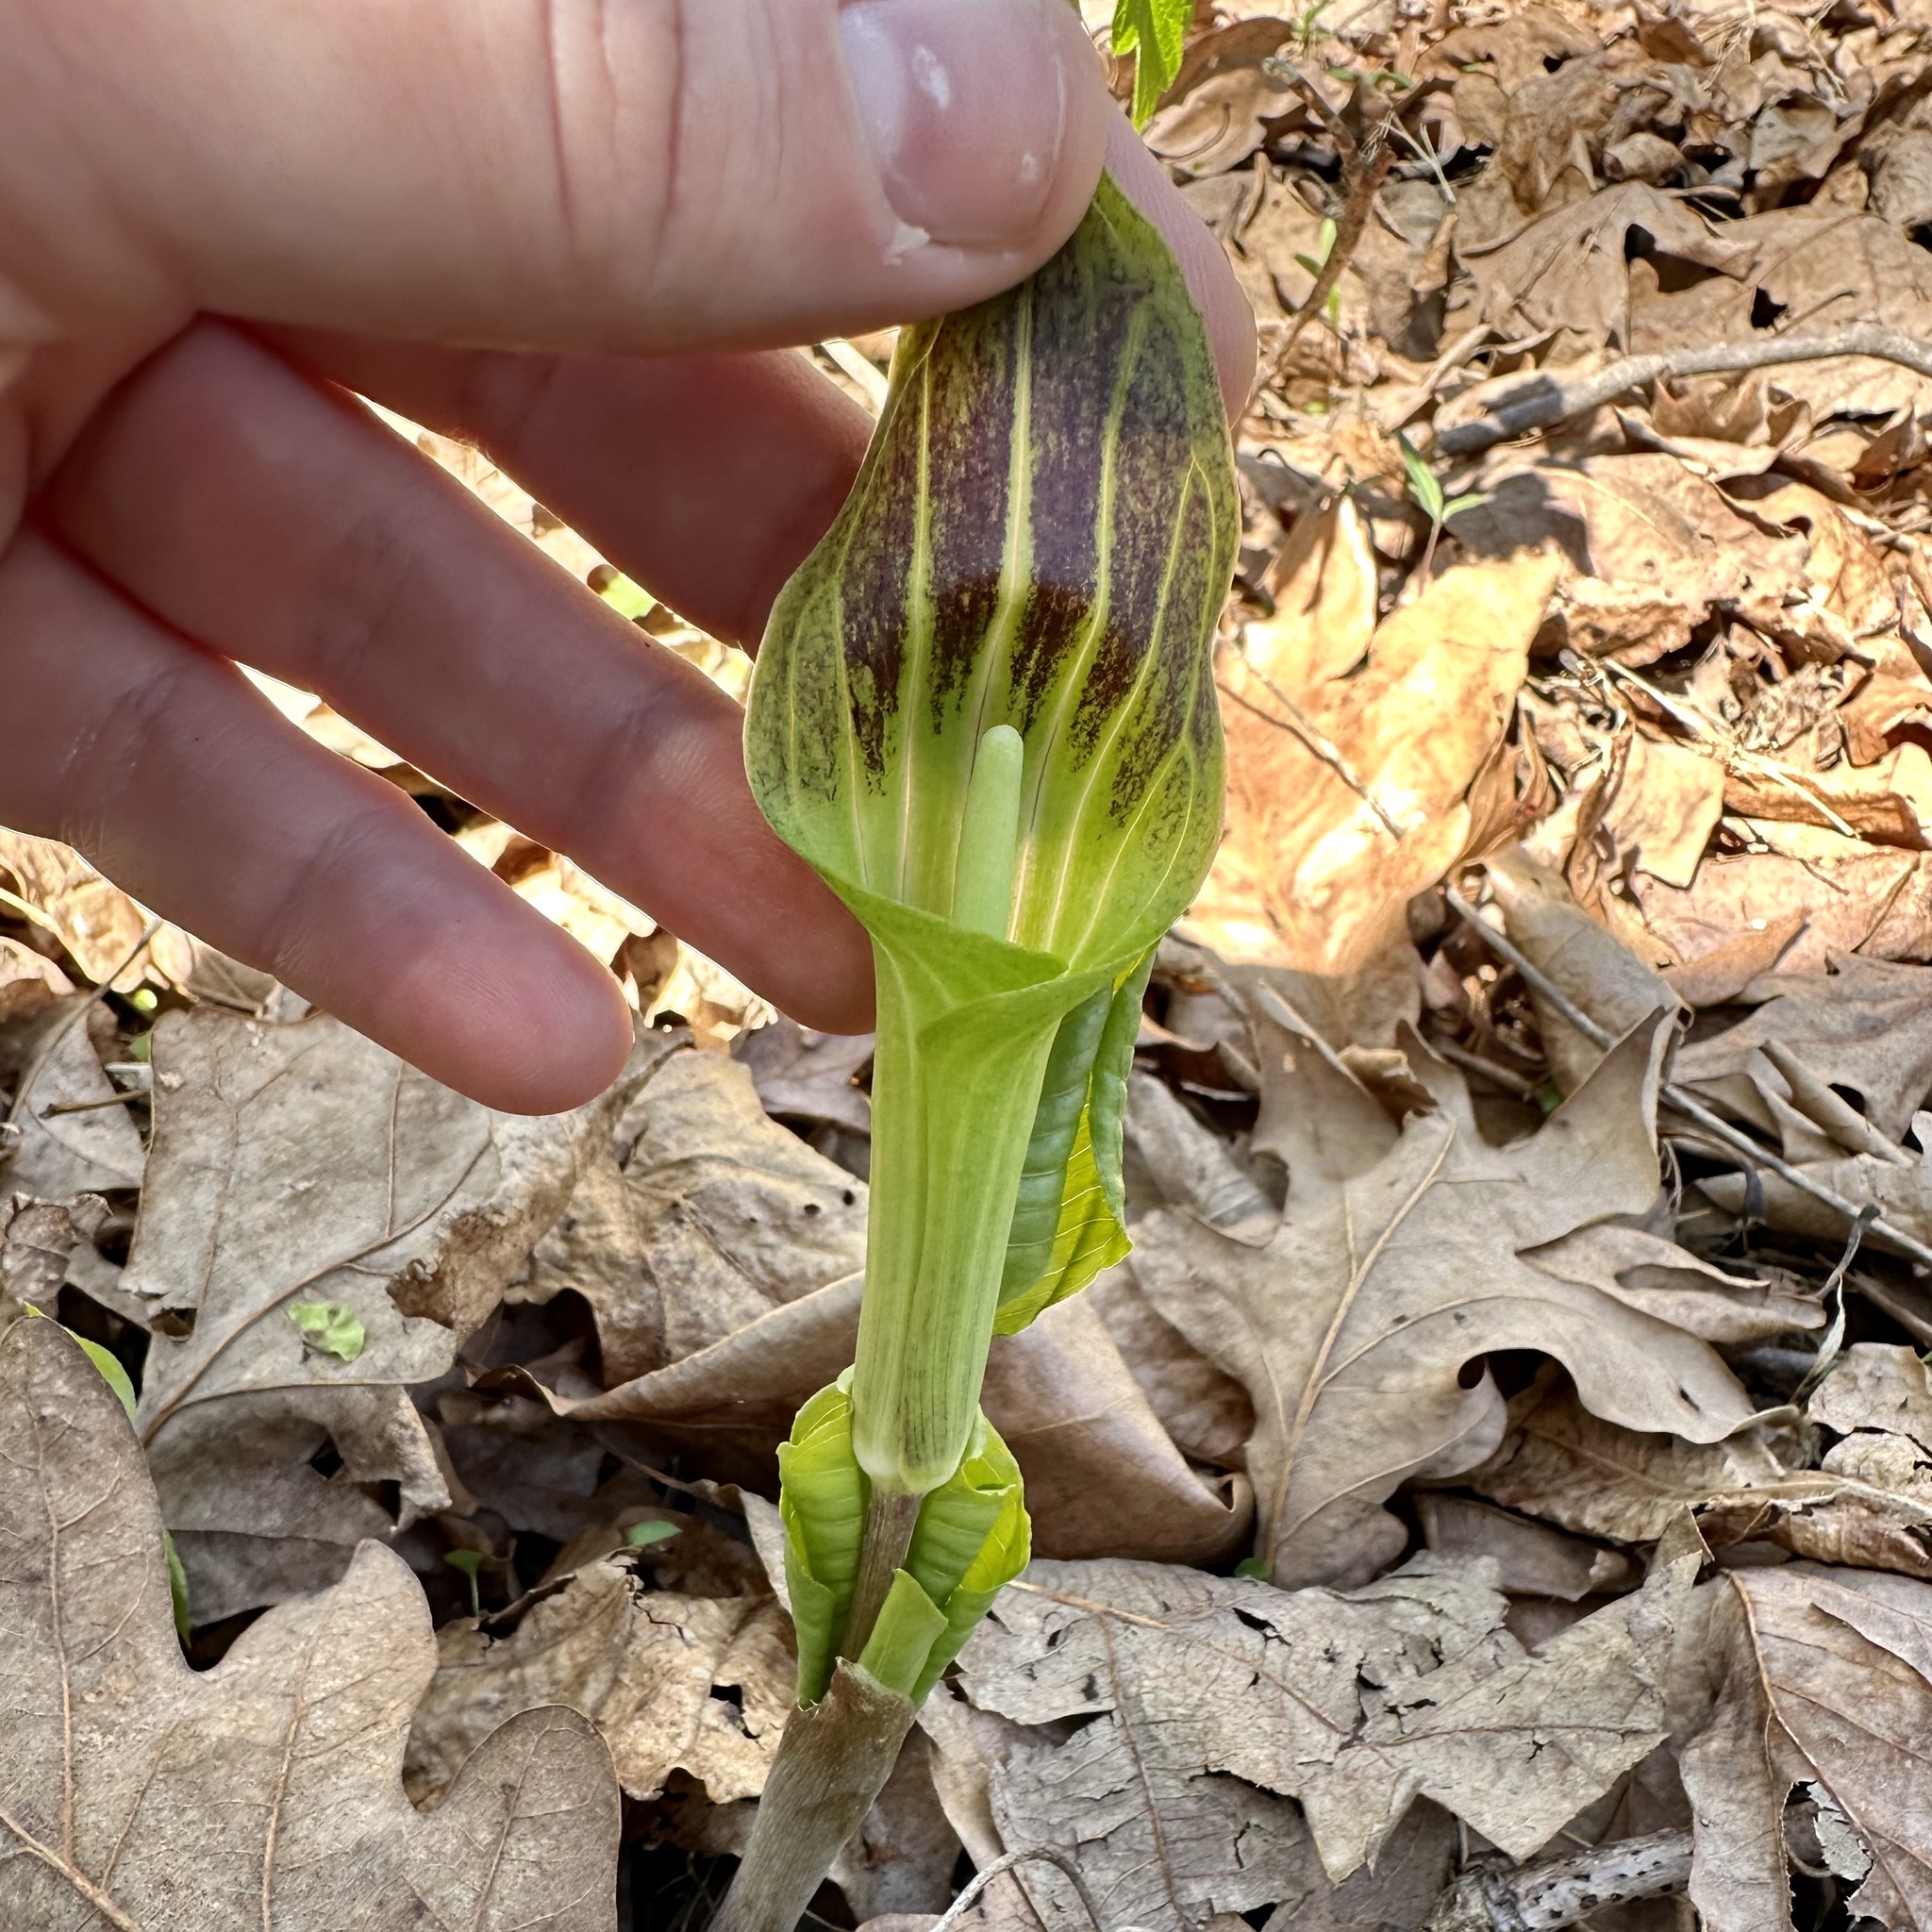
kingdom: Plantae
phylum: Tracheophyta
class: Liliopsida
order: Alismatales
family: Araceae
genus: Arisaema
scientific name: Arisaema triphyllum
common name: Jack-in-the-pulpit
